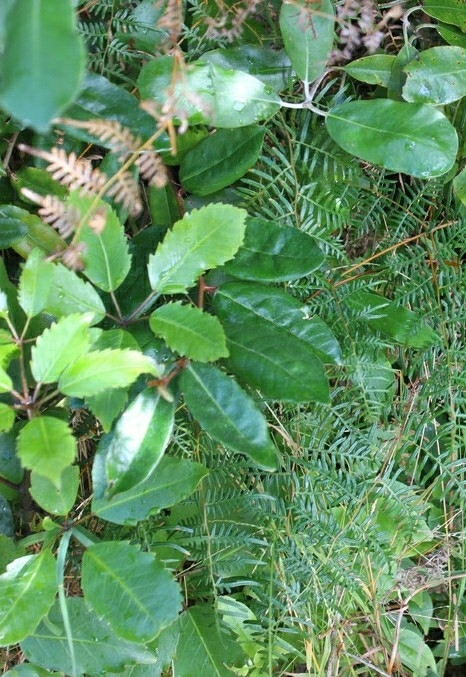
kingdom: Plantae
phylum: Tracheophyta
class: Magnoliopsida
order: Apiales
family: Araliaceae
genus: Neopanax
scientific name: Neopanax arboreus
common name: Five-fingers
